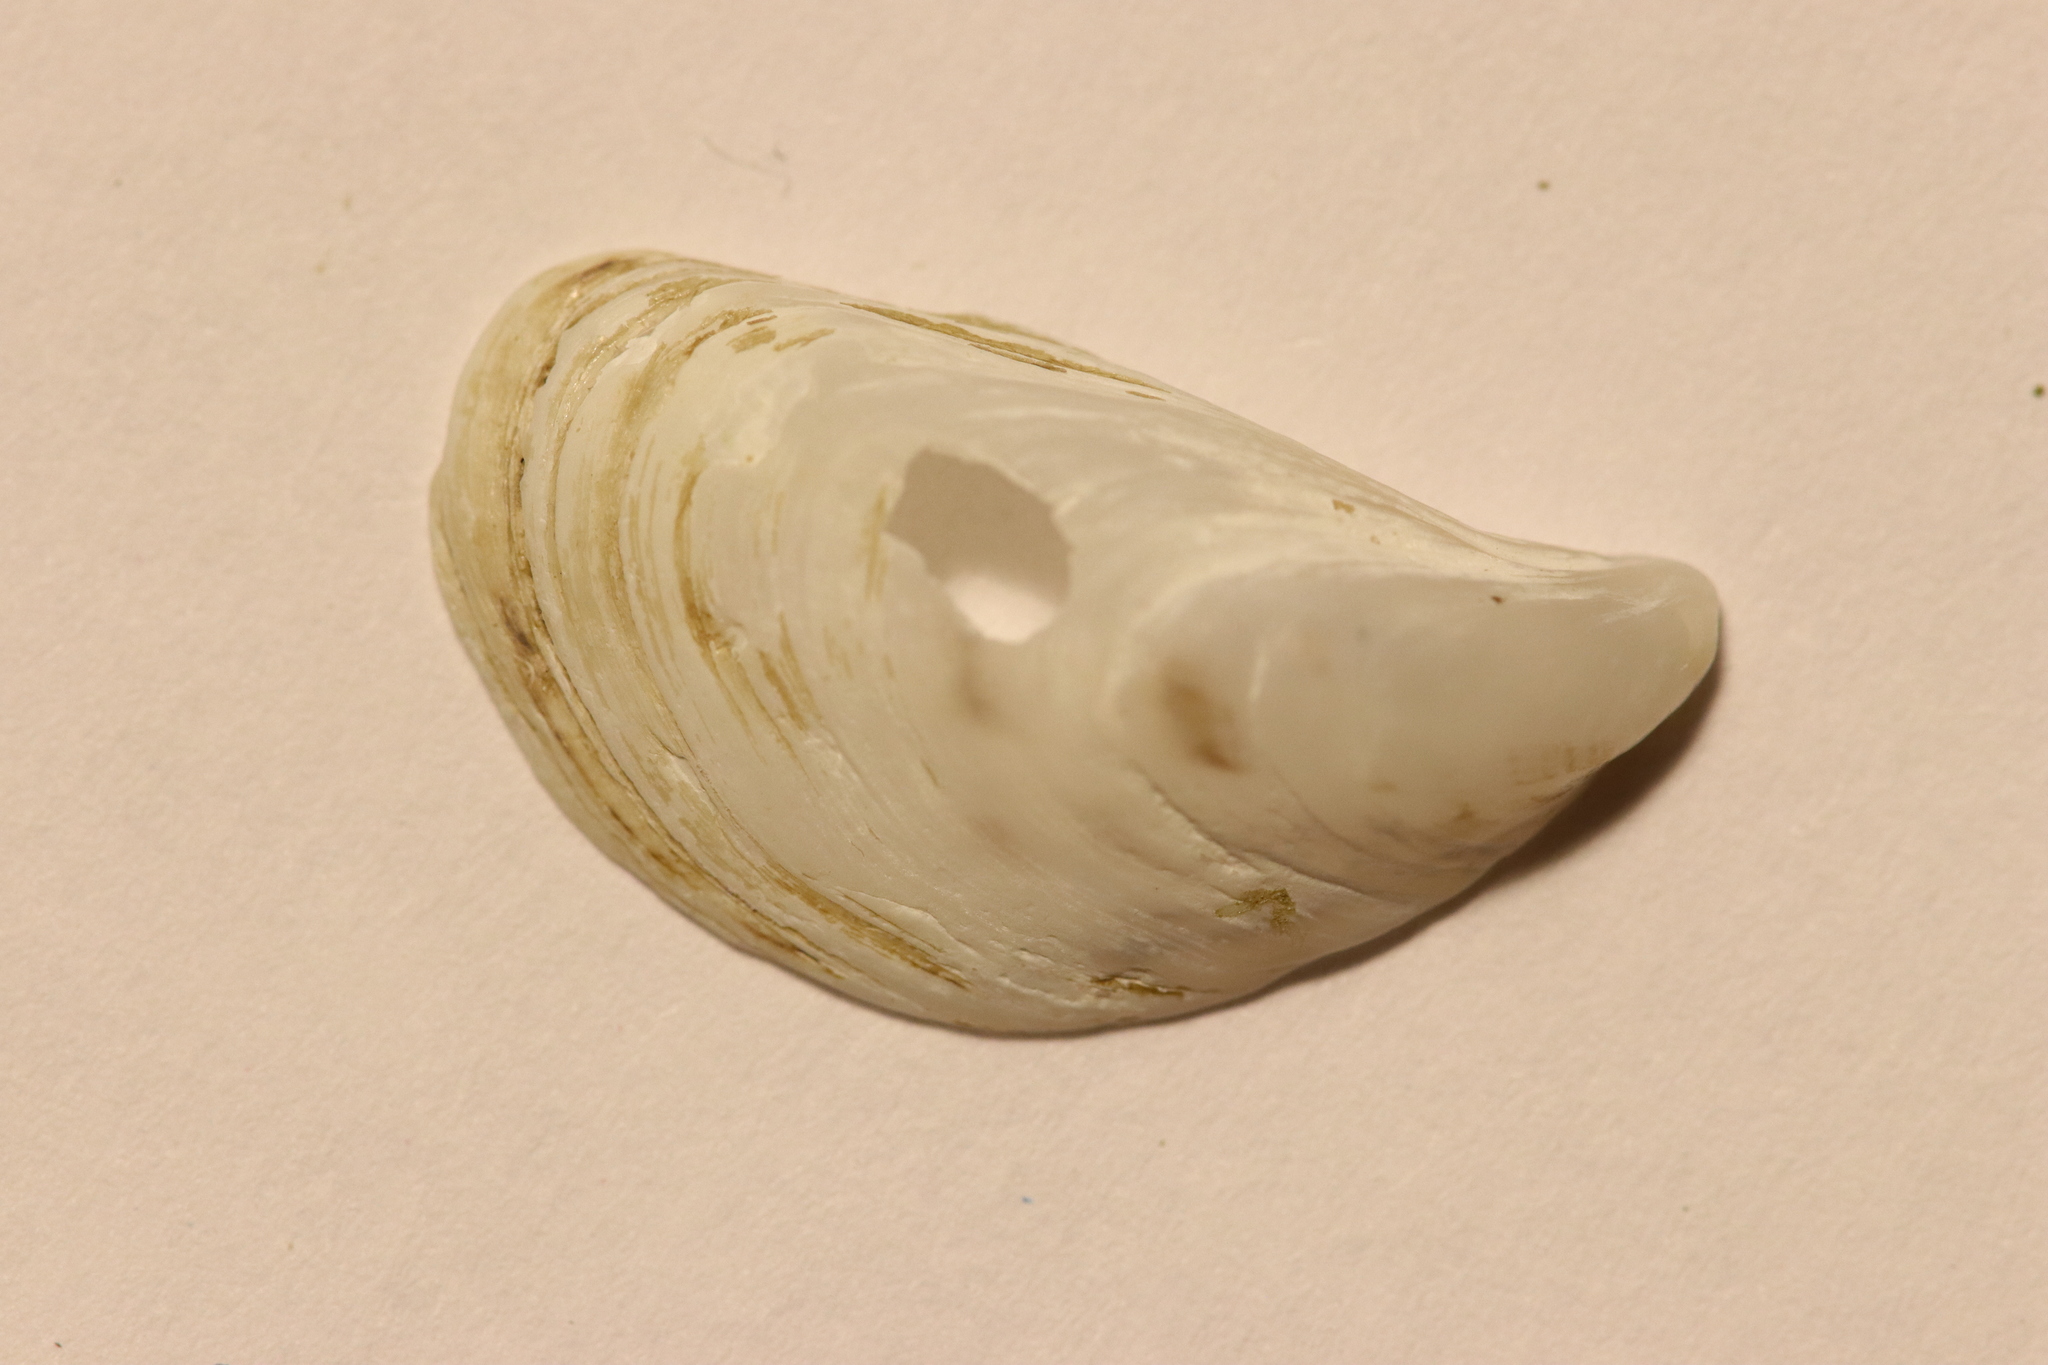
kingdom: Animalia
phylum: Mollusca
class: Bivalvia
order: Myida
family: Dreissenidae
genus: Dreissena
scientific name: Dreissena bugensis
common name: Quagga mussel
